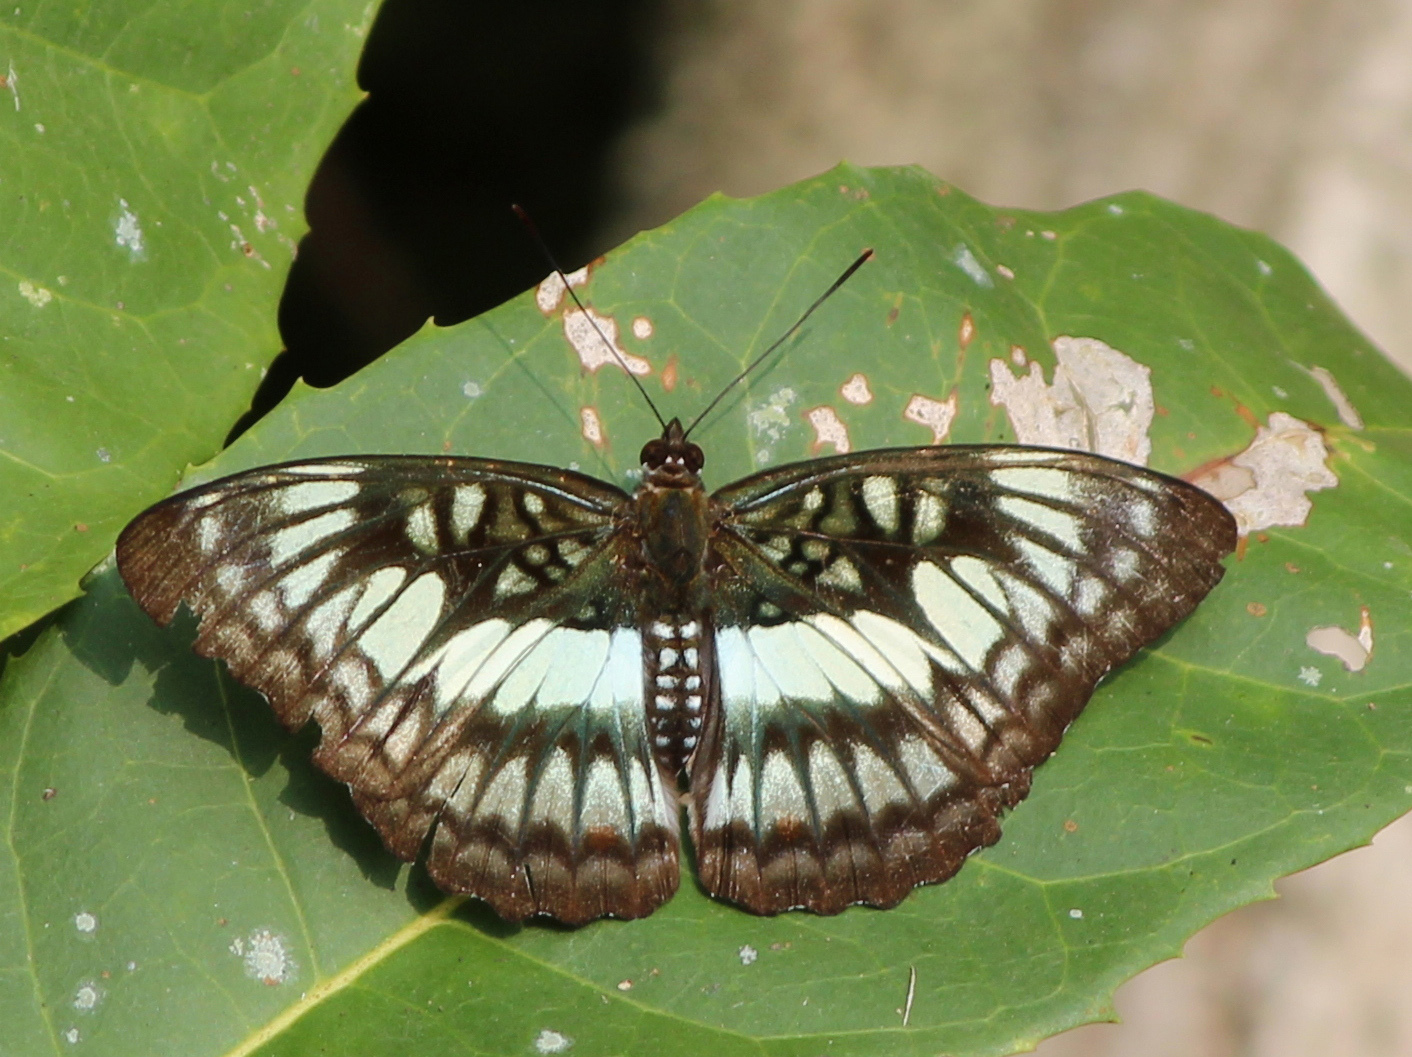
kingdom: Animalia
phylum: Arthropoda
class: Insecta
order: Lepidoptera
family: Nymphalidae
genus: Parathyma
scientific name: Parathyma ranga
